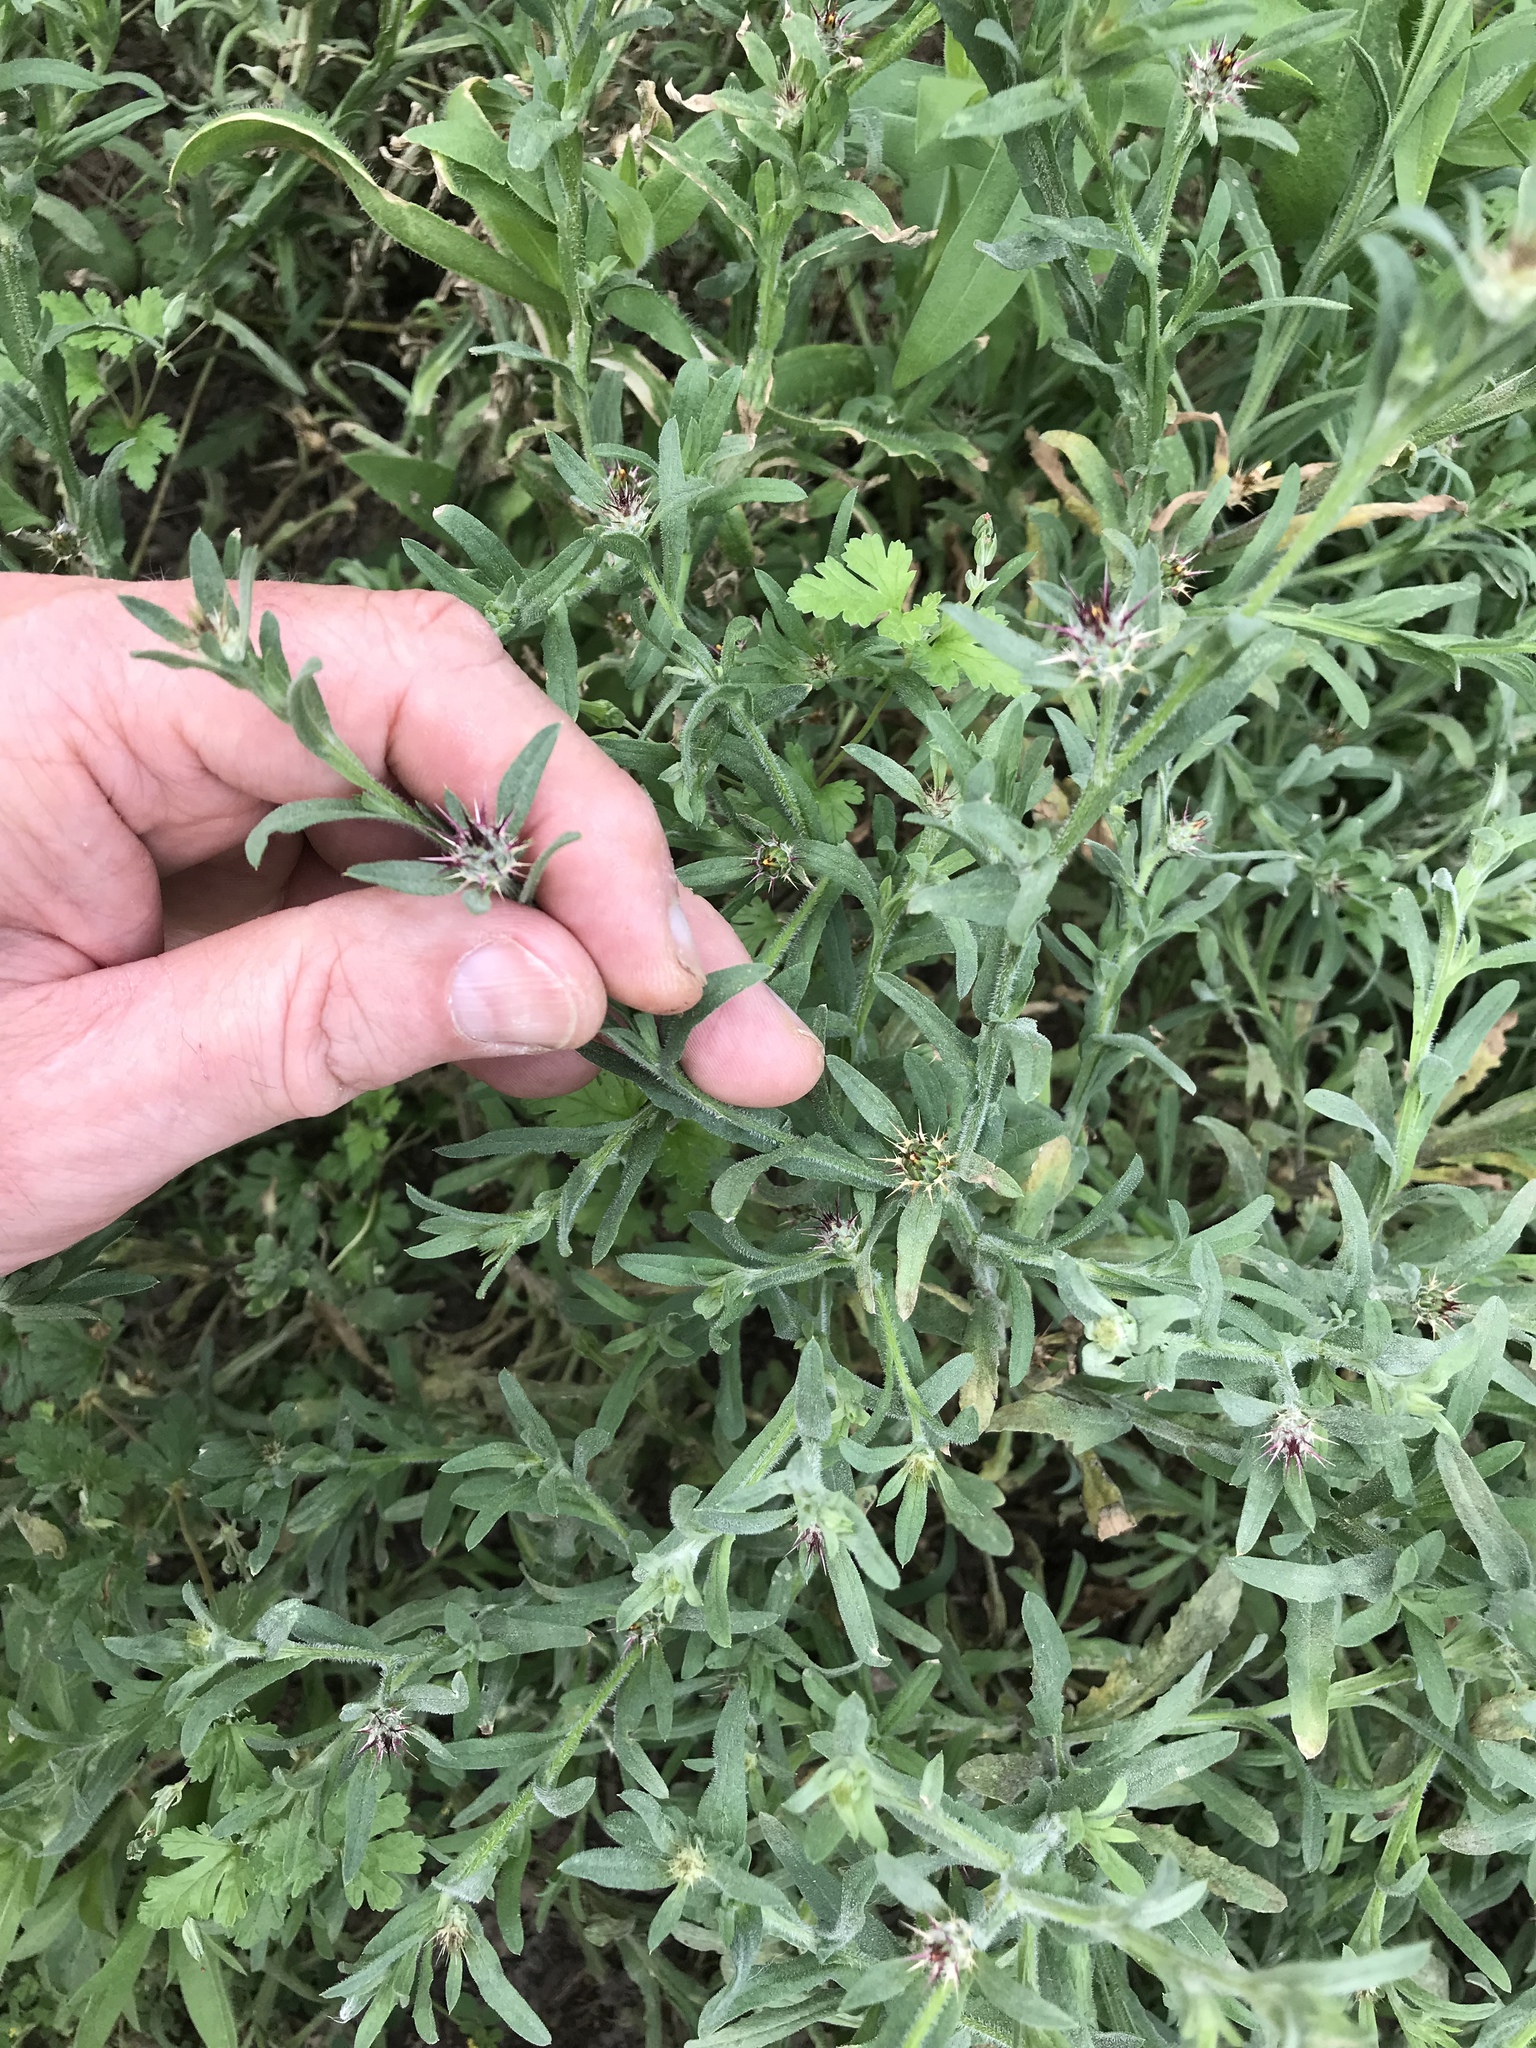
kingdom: Plantae
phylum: Tracheophyta
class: Magnoliopsida
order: Asterales
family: Asteraceae
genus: Centaurea
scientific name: Centaurea melitensis
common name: Maltese star-thistle
